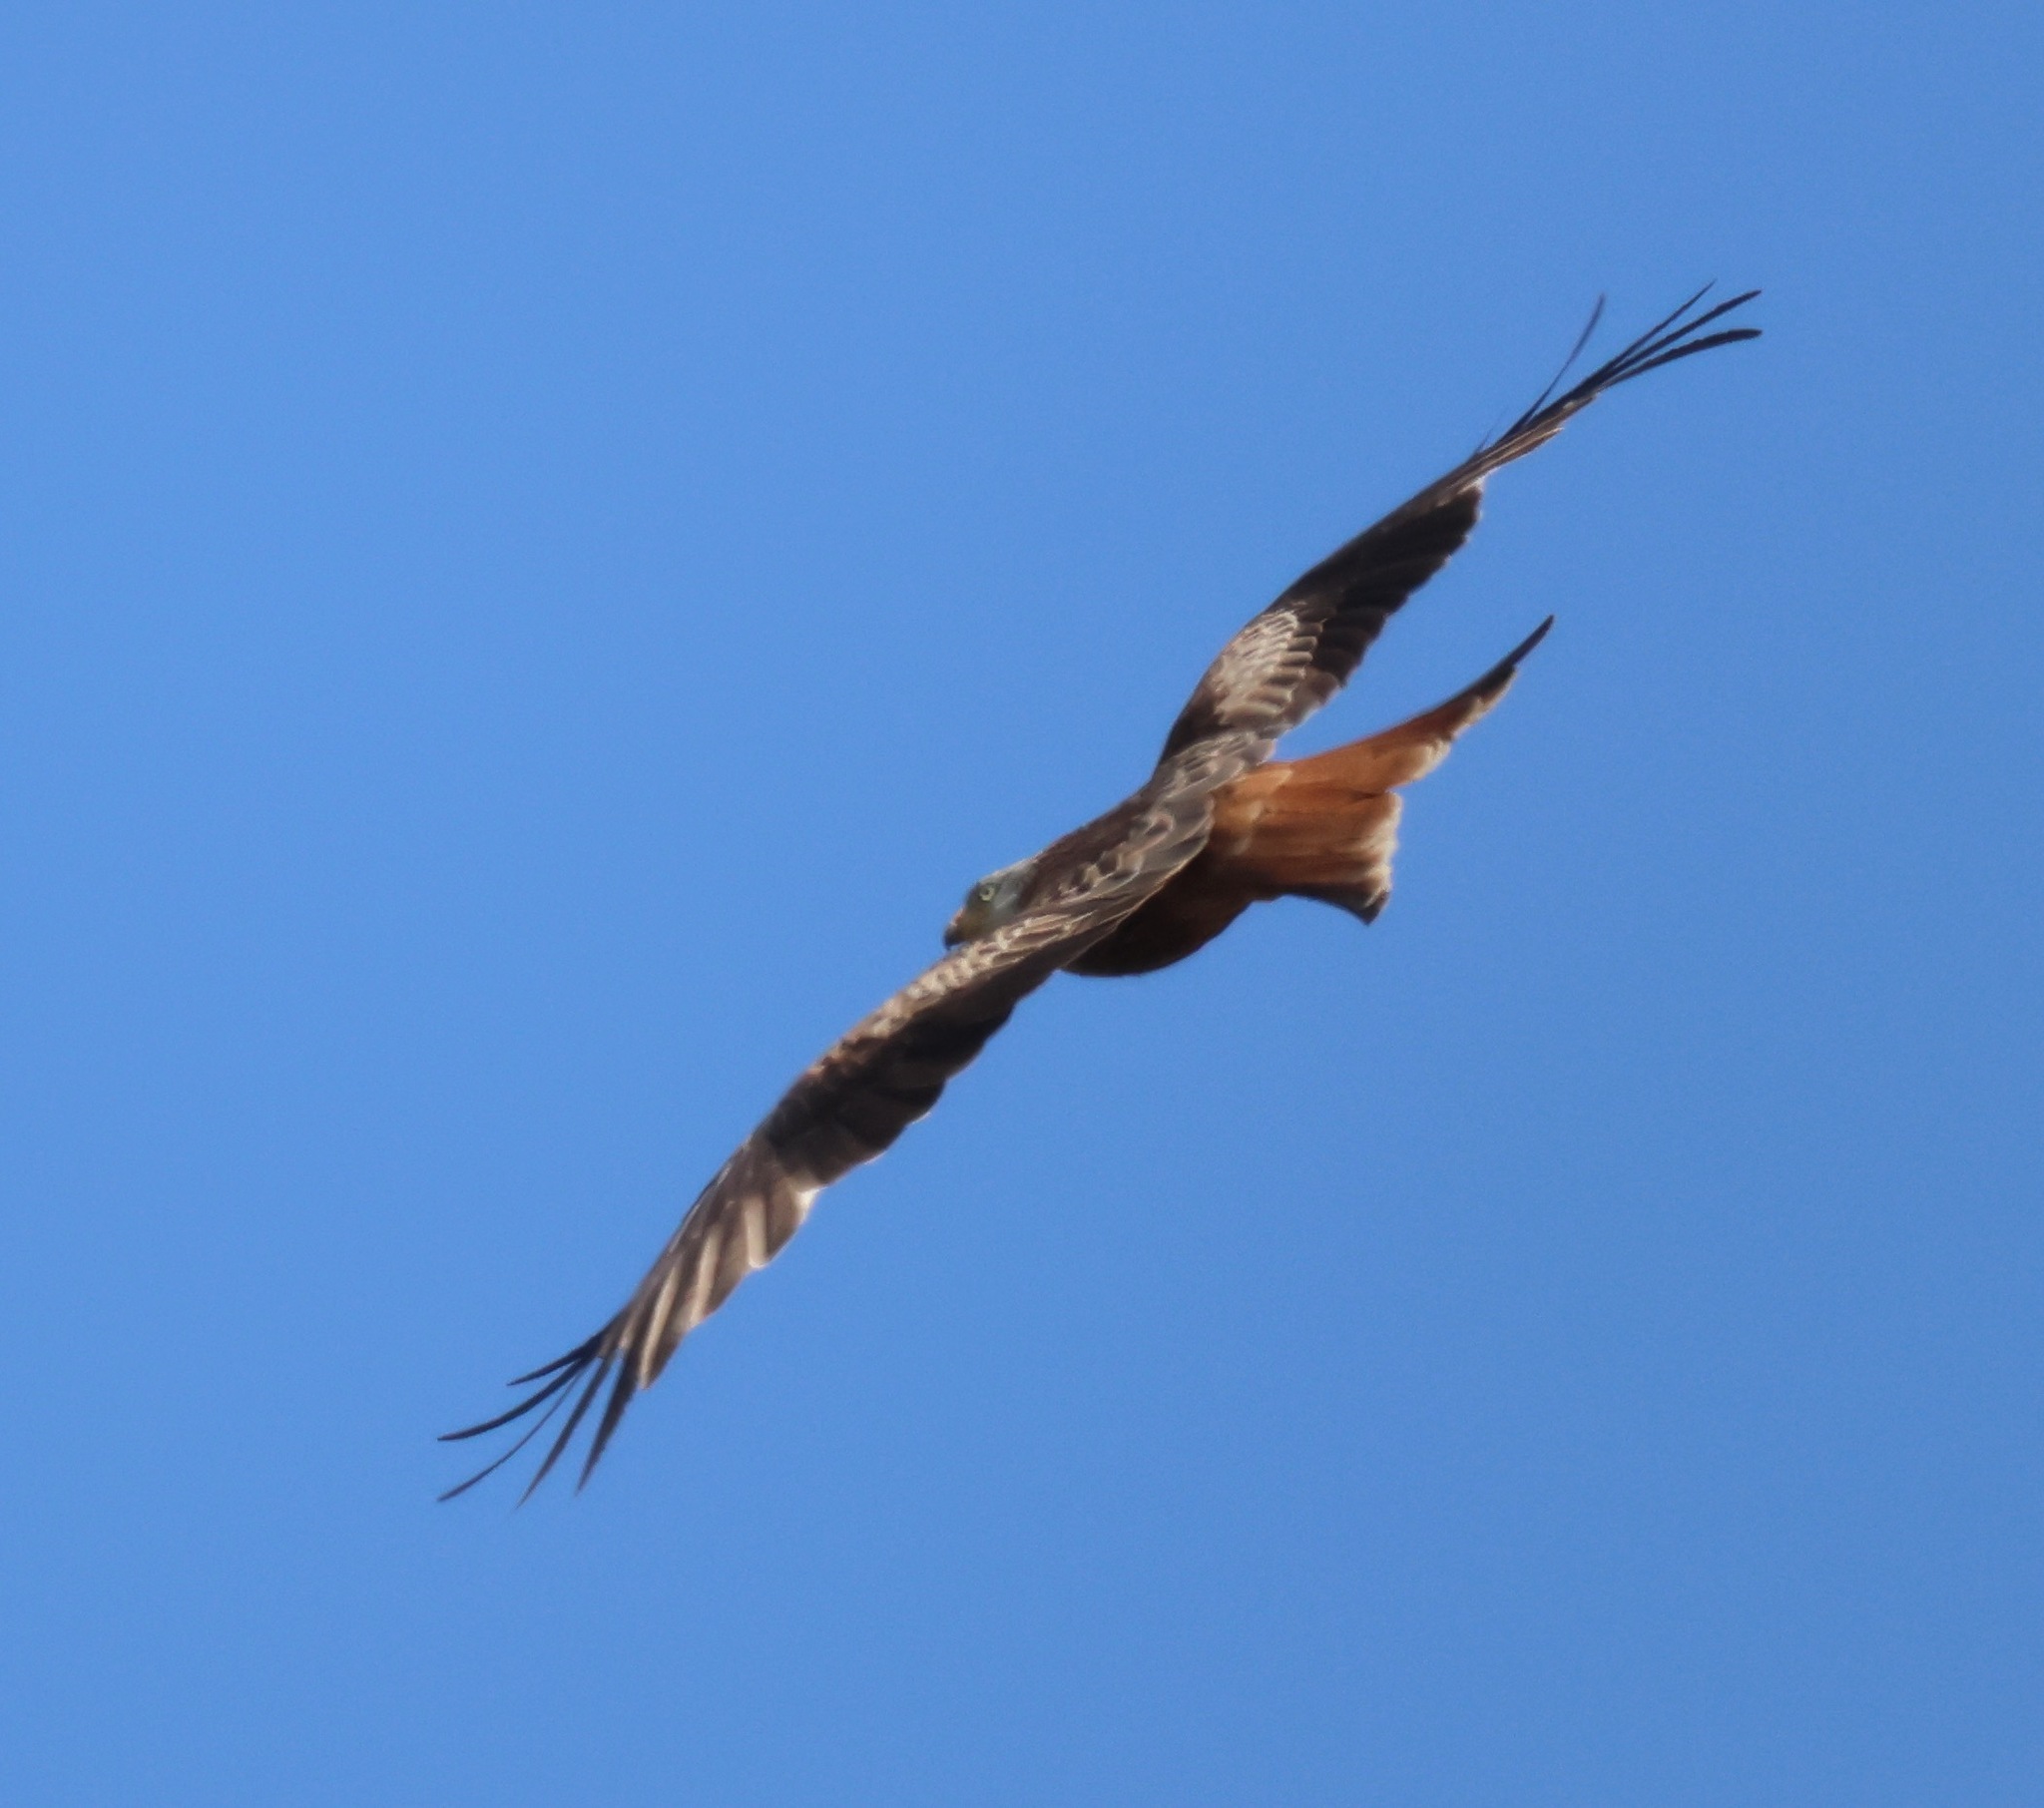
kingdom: Animalia
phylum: Chordata
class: Aves
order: Accipitriformes
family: Accipitridae
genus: Milvus
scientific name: Milvus milvus
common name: Red kite
